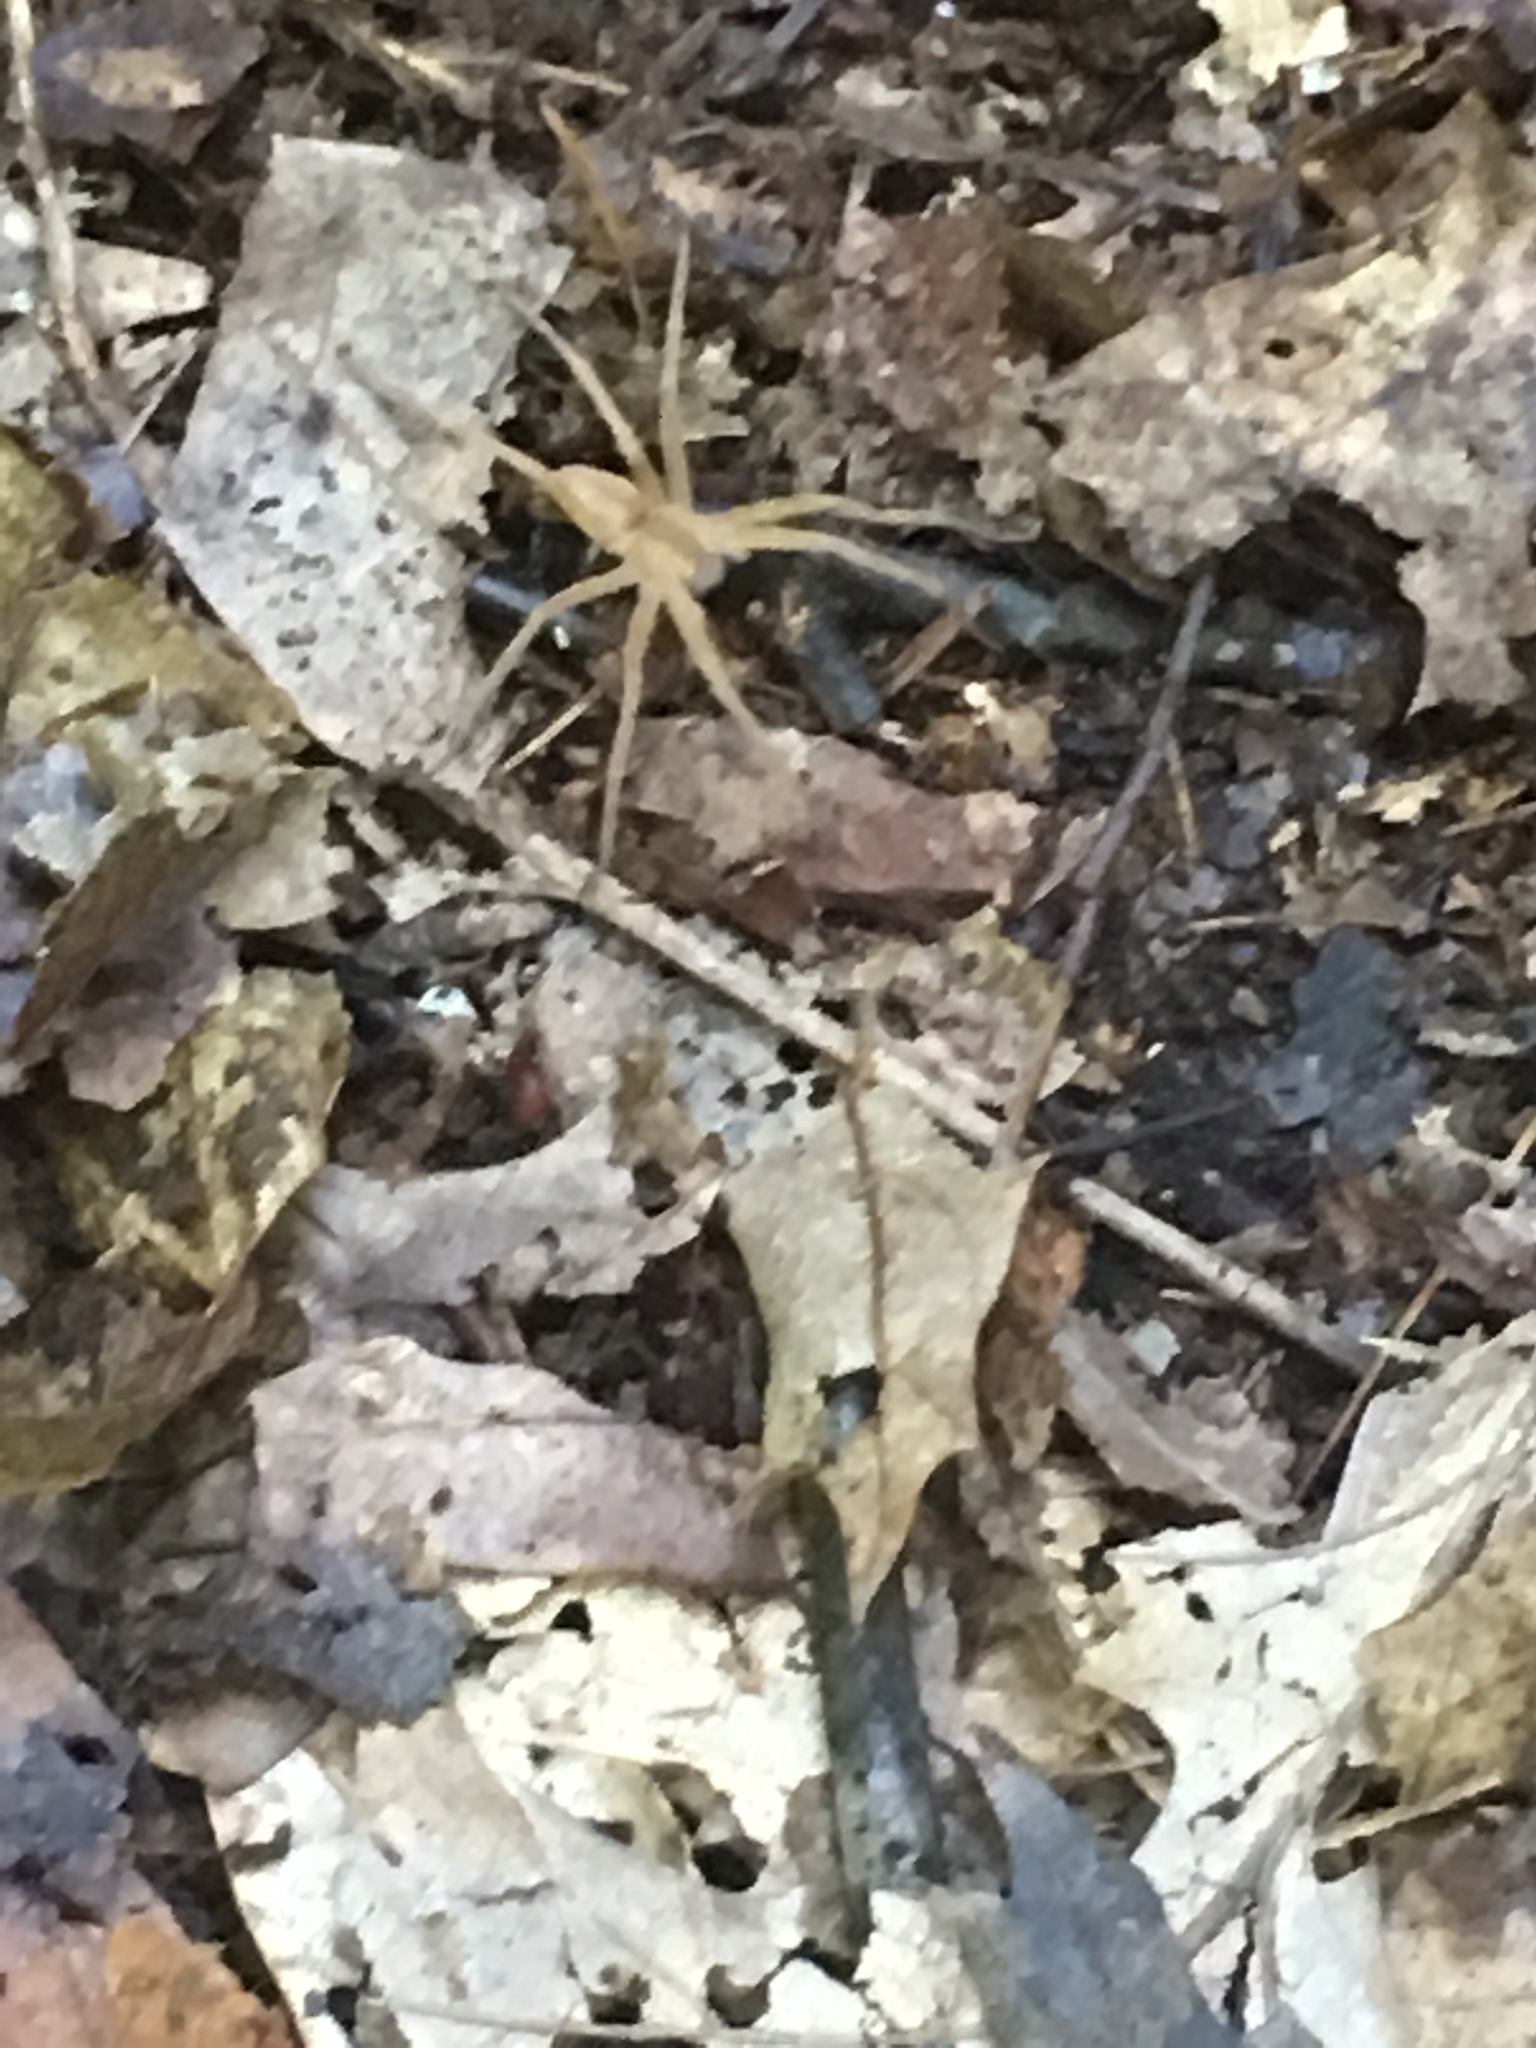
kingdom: Animalia
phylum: Arthropoda
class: Arachnida
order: Araneae
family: Pisauridae
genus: Pisaurina
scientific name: Pisaurina mira
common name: American nursery web spider
